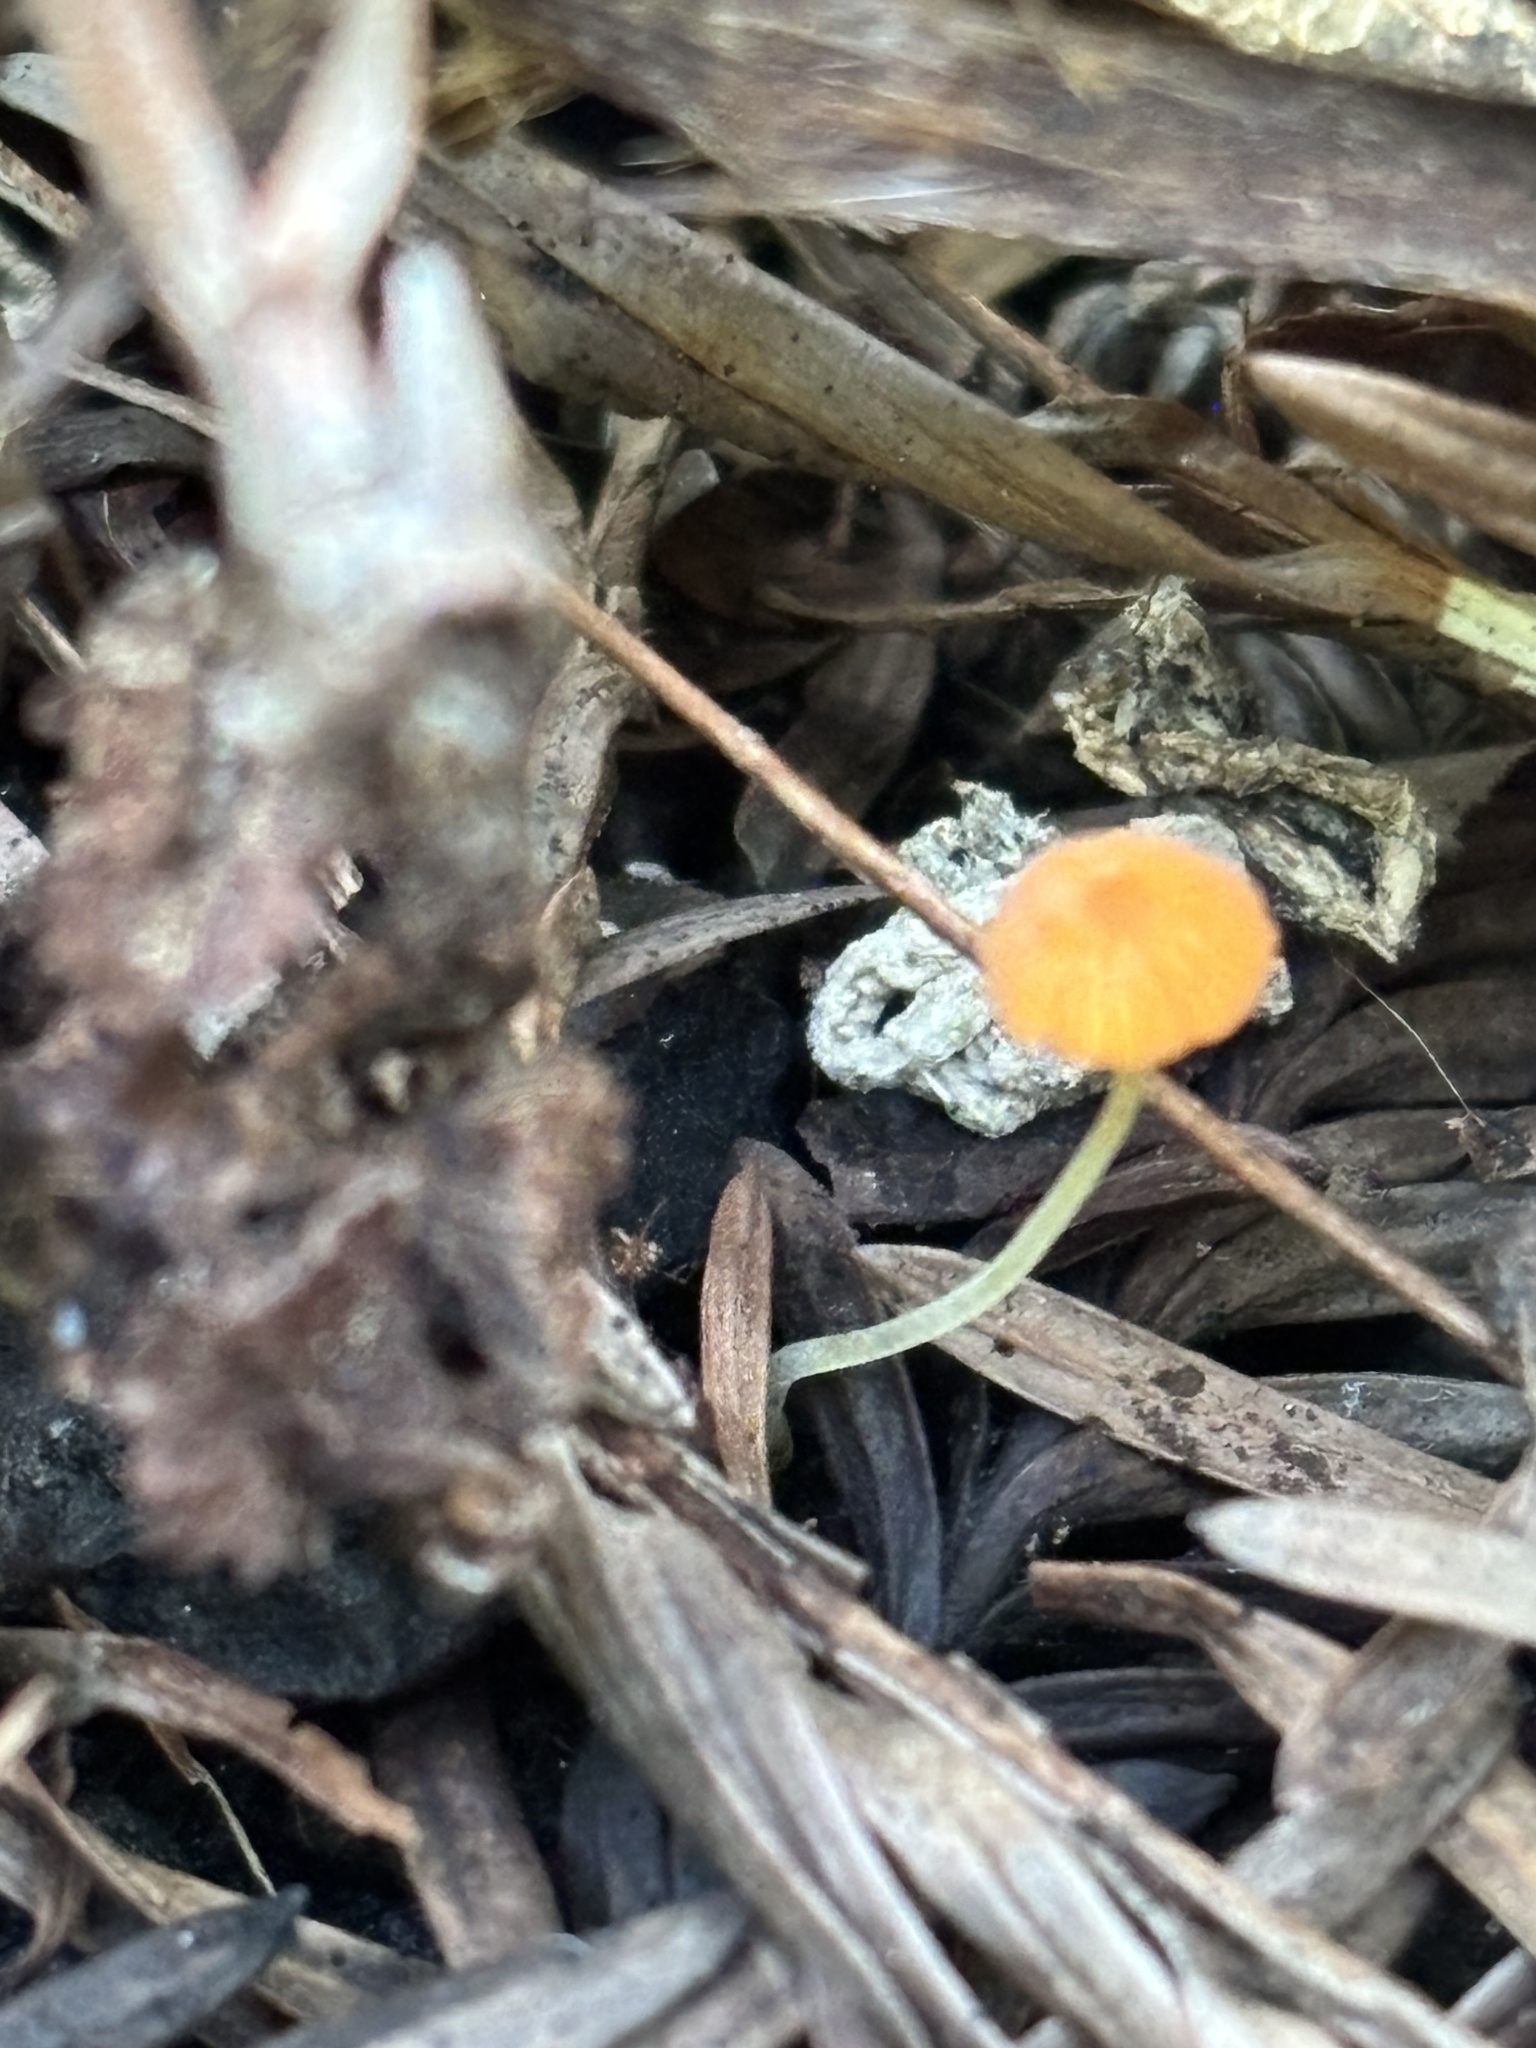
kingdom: Fungi
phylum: Basidiomycota
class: Agaricomycetes
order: Agaricales
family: Mycenaceae
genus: Mycena
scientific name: Mycena acicula
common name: Orange bonnet
